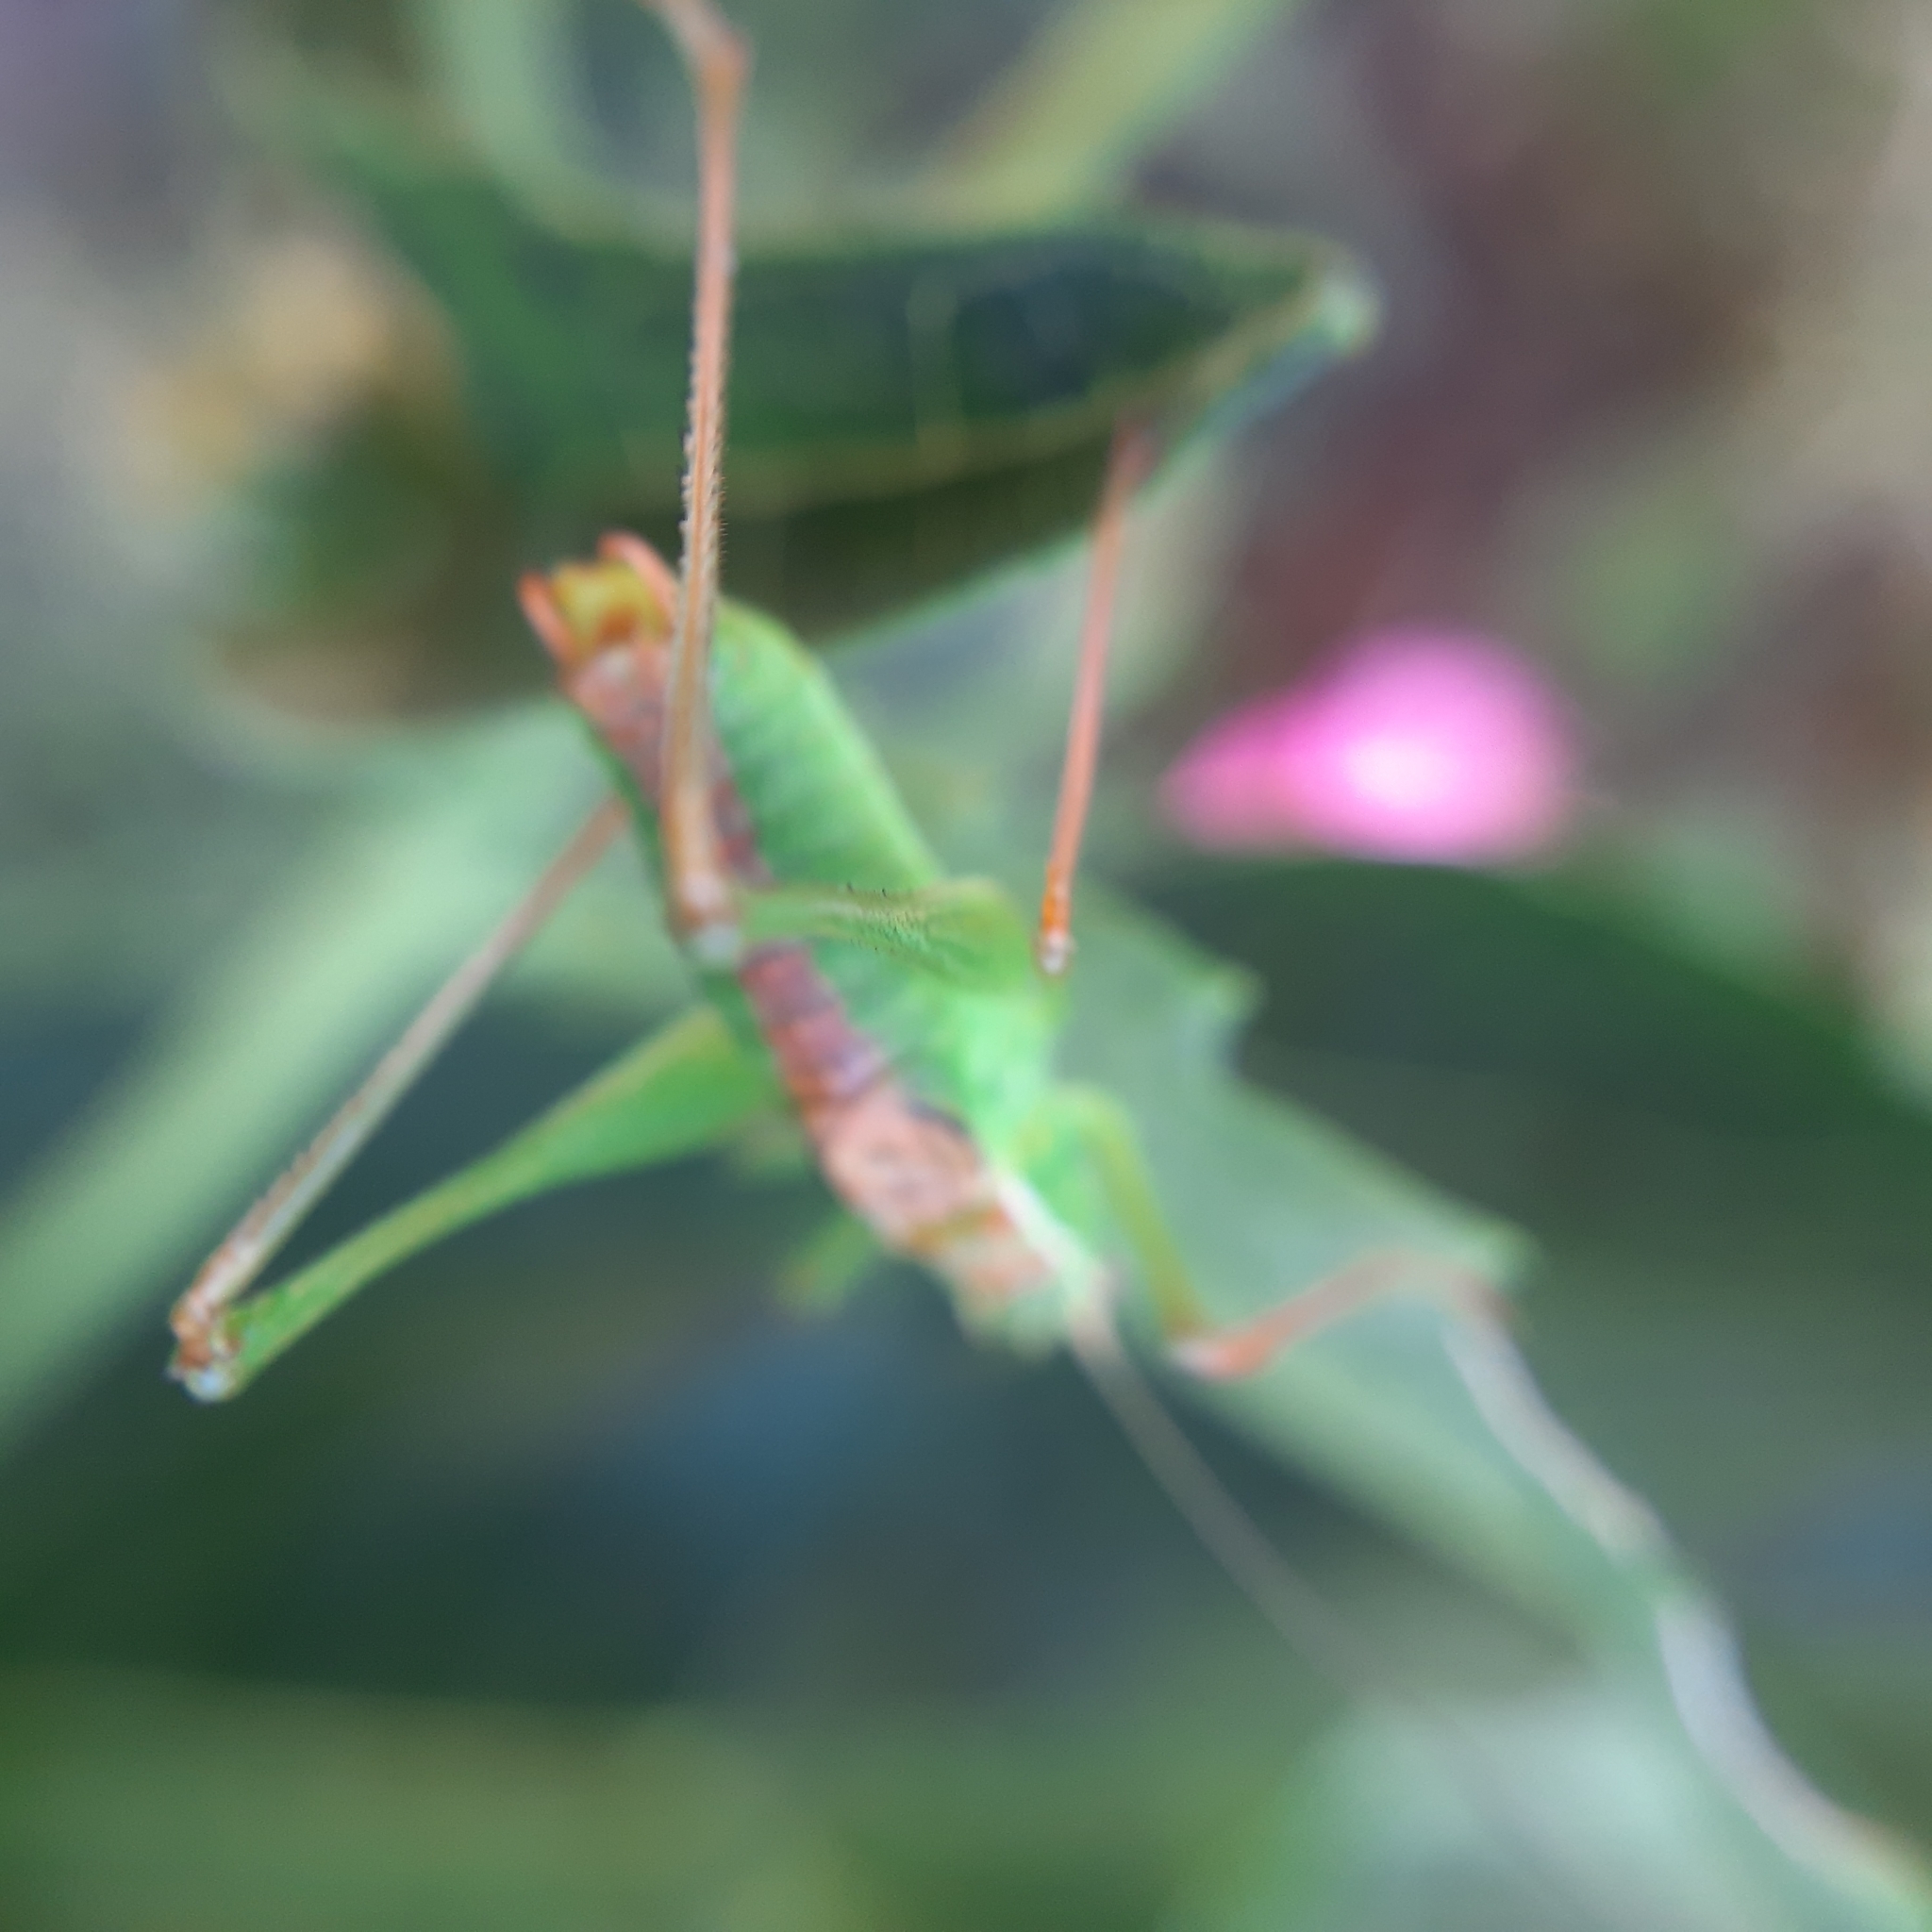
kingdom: Animalia
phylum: Arthropoda
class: Insecta
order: Orthoptera
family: Tettigoniidae
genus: Leptophyes
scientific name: Leptophyes punctatissima
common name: Speckled bush-cricket
